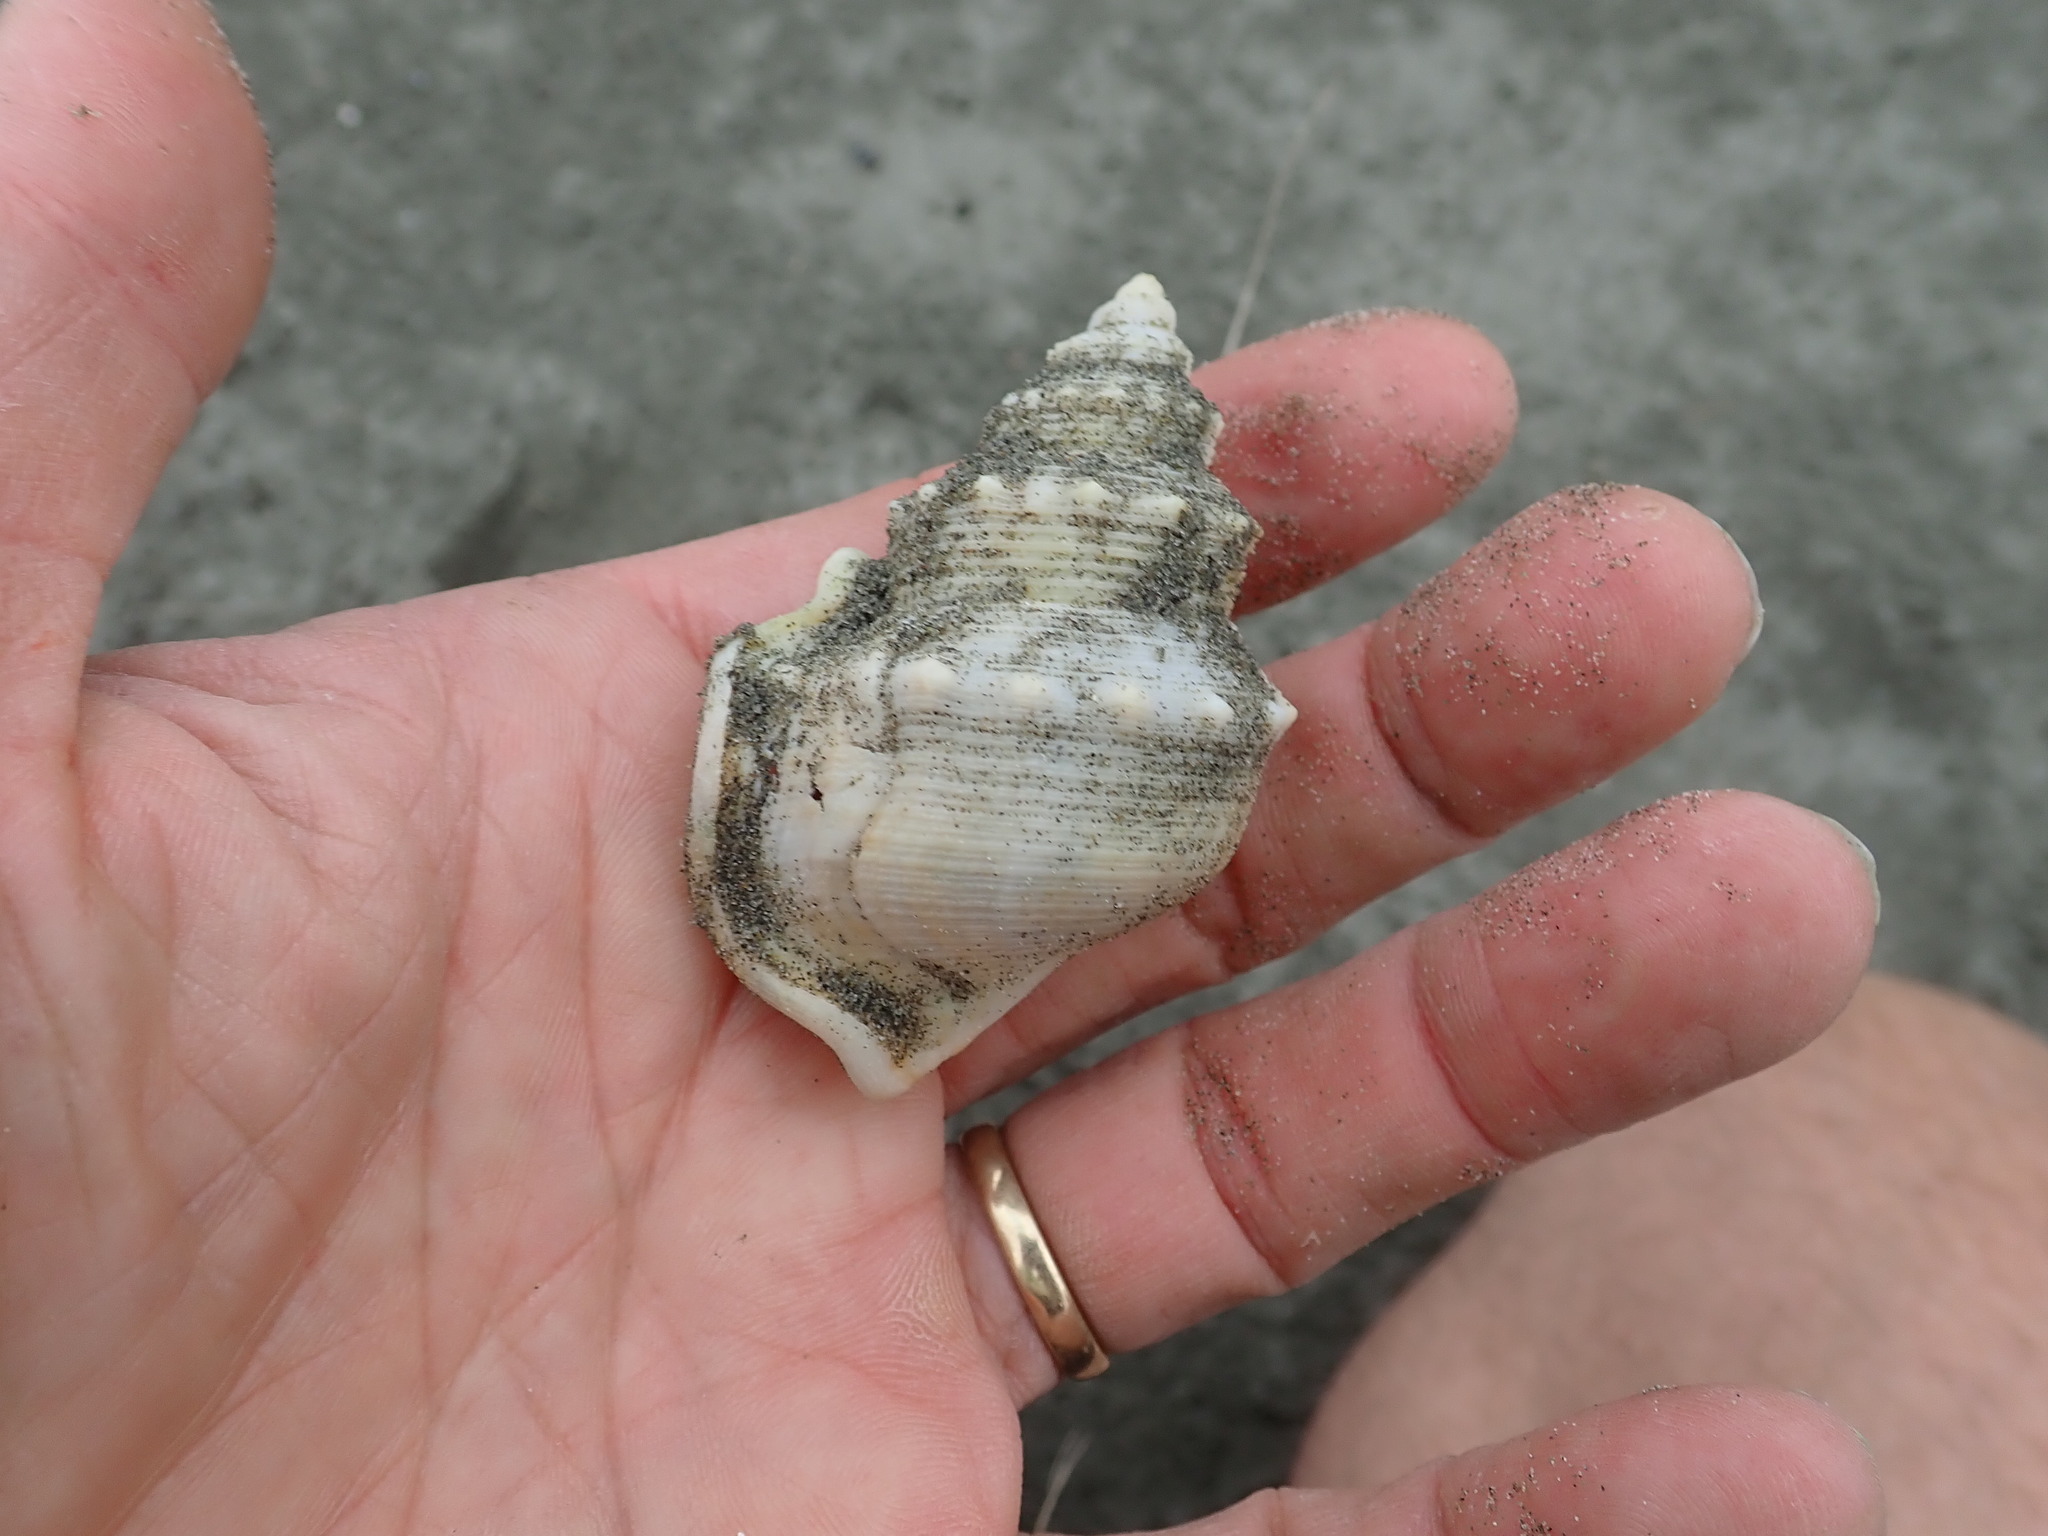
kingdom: Animalia
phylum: Mollusca
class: Gastropoda
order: Littorinimorpha
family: Struthiolariidae
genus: Struthiolaria
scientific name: Struthiolaria papulosa
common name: Large ostrich foot
